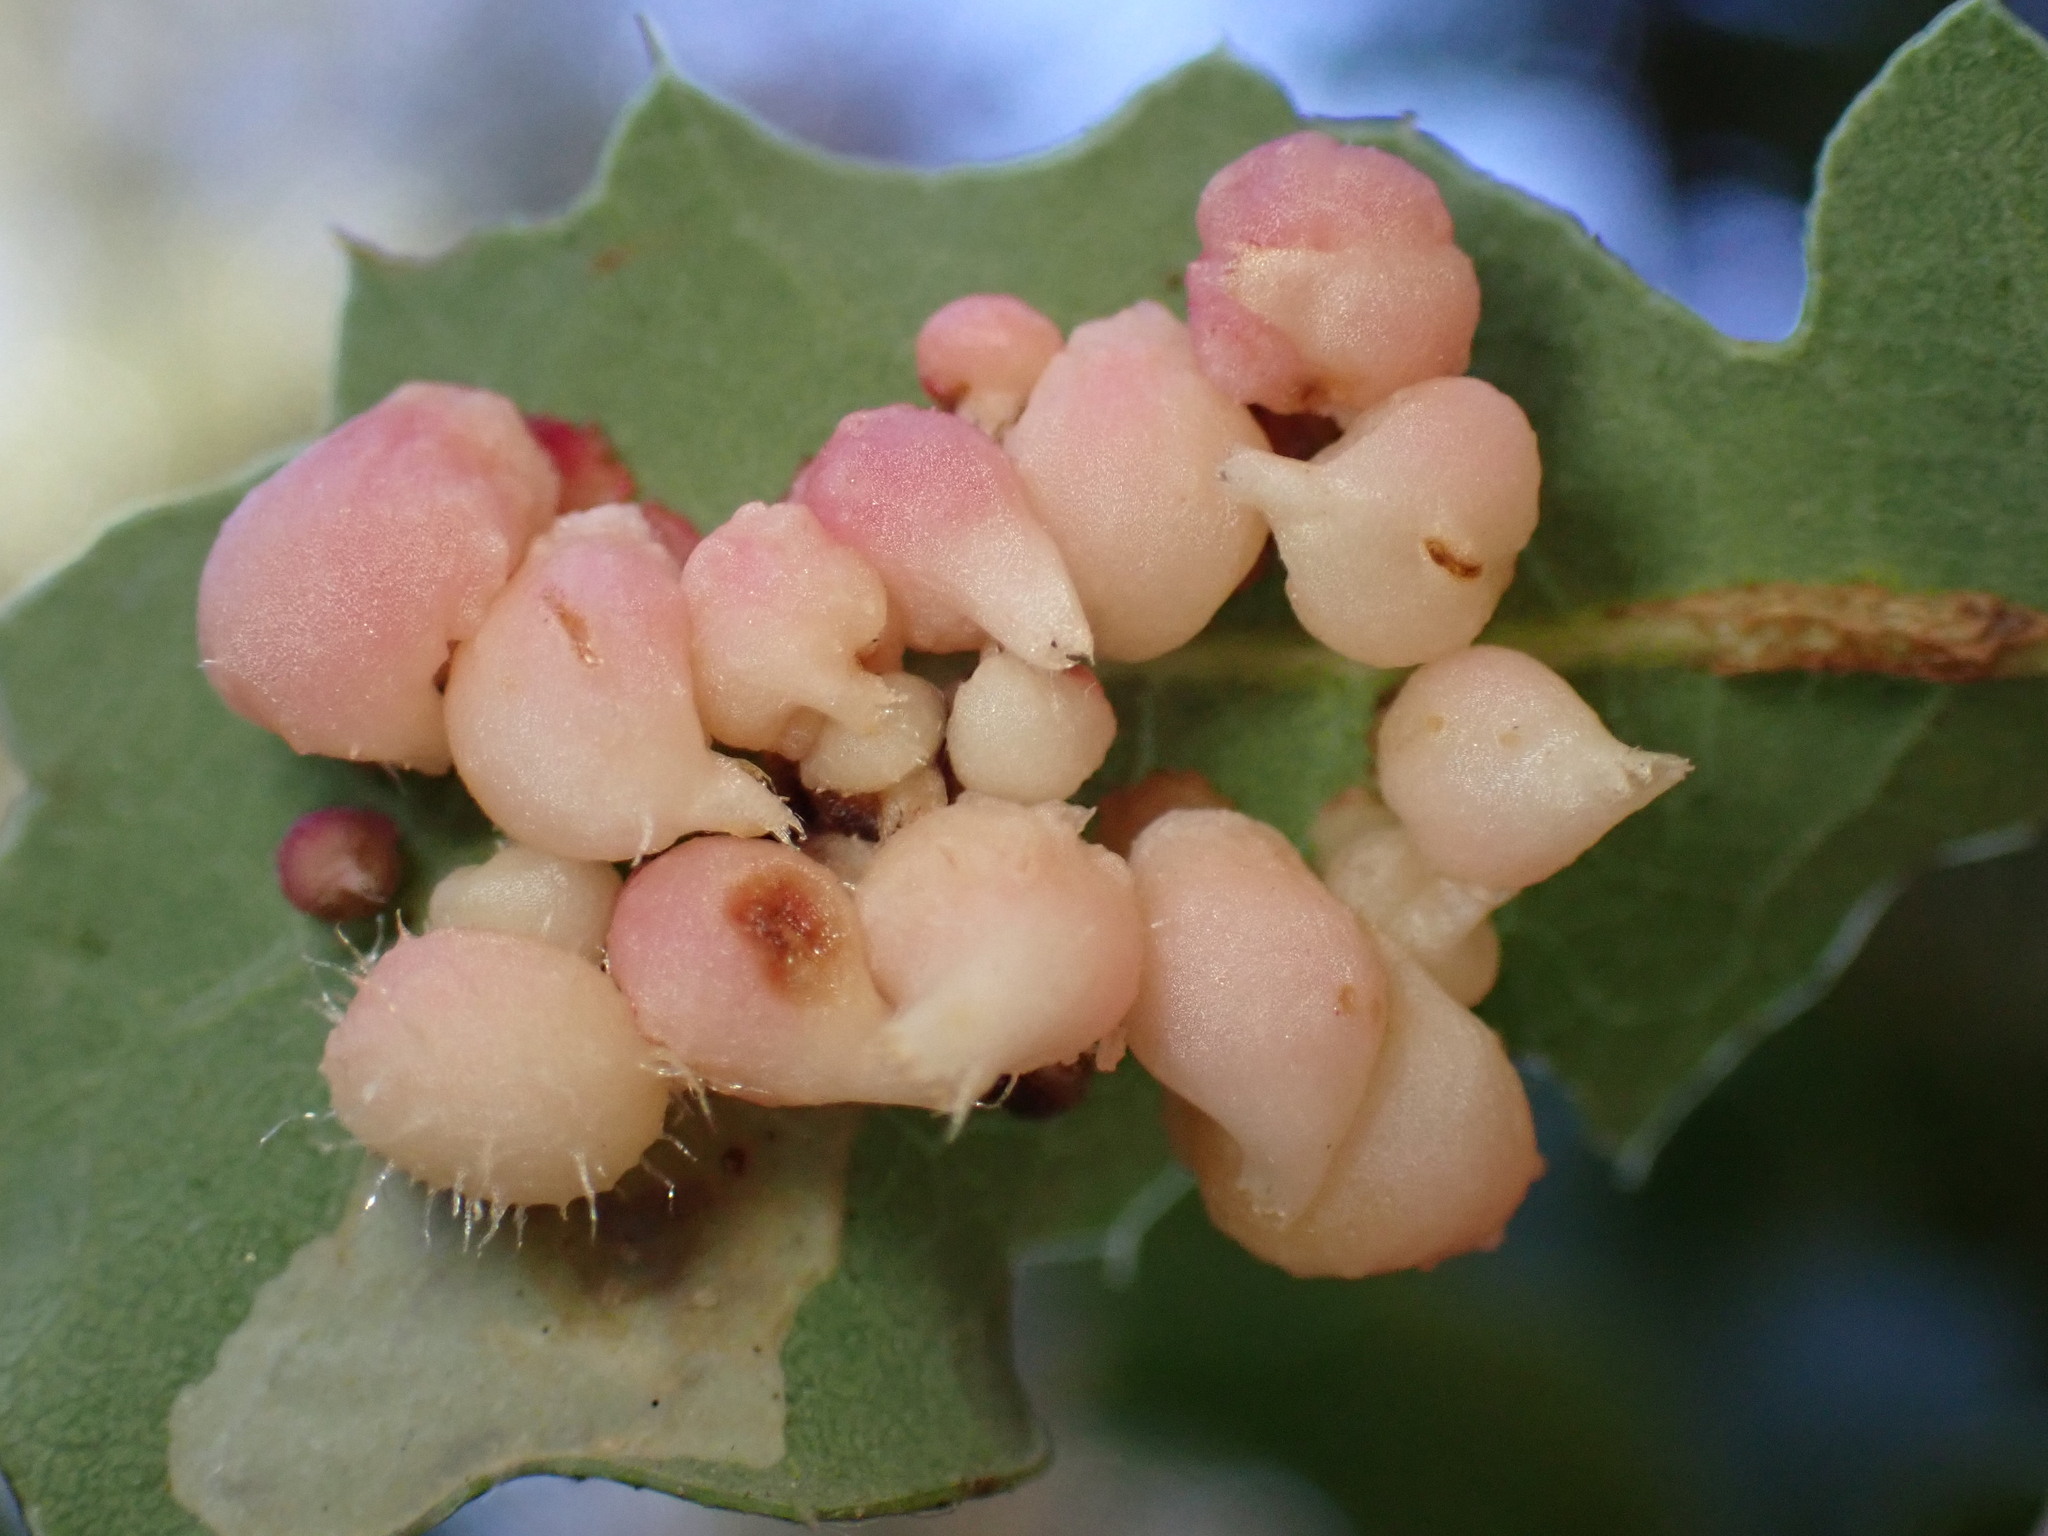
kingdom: Animalia
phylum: Arthropoda
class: Insecta
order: Hymenoptera
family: Cynipidae
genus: Andricus
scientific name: Andricus
